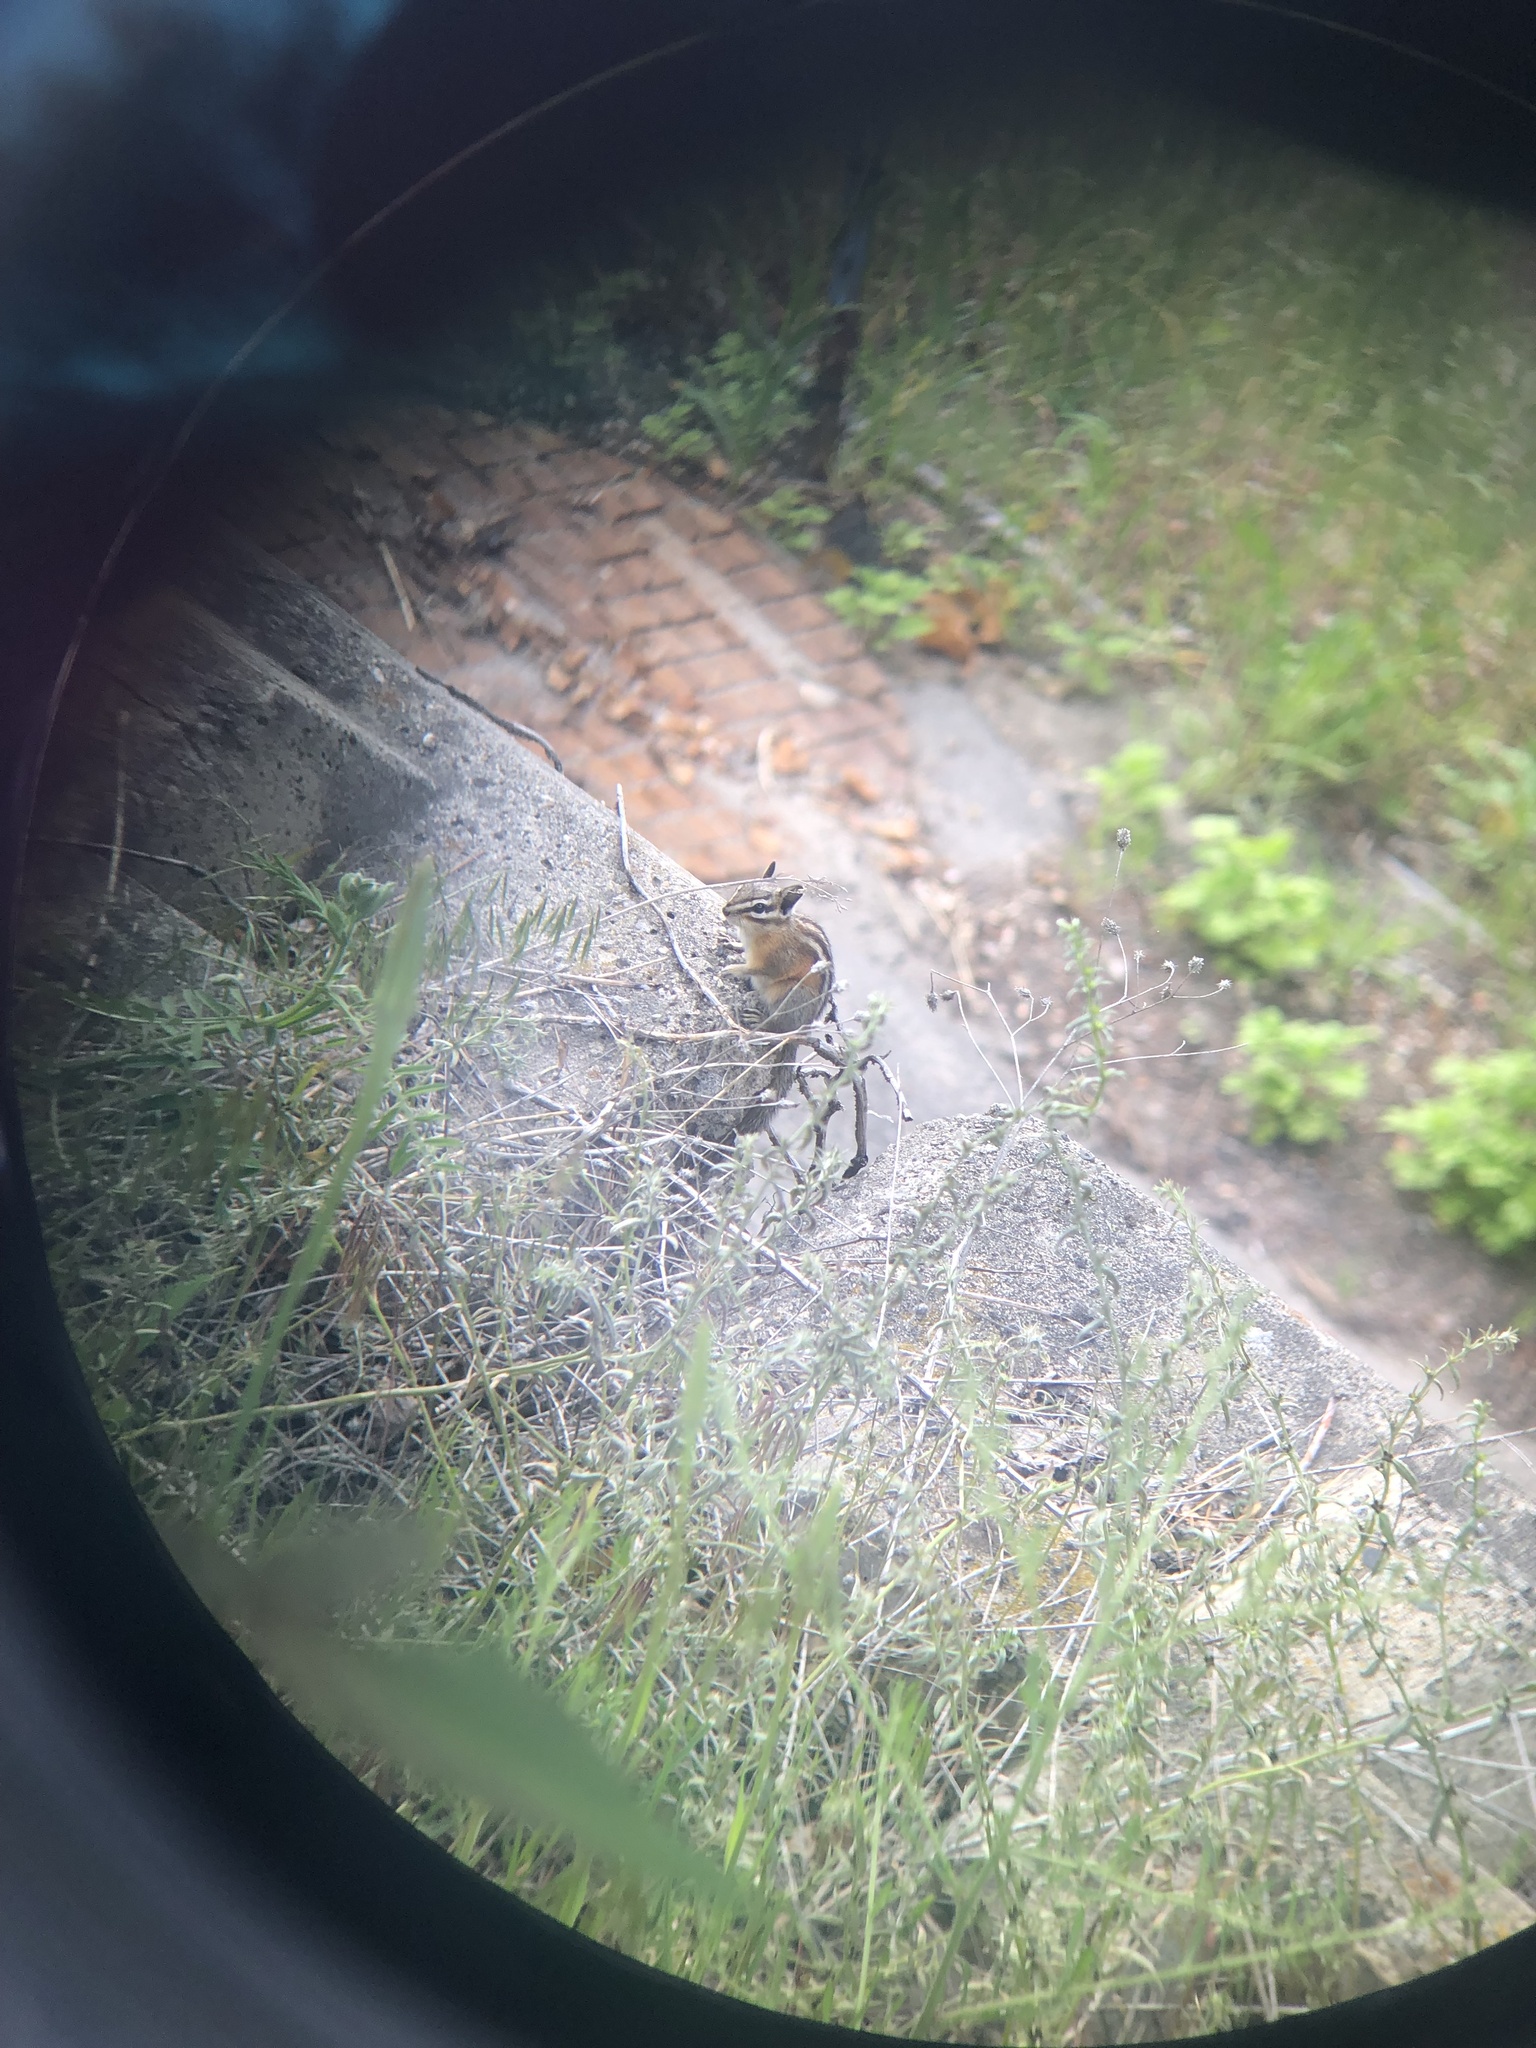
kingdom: Animalia
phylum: Chordata
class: Mammalia
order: Rodentia
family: Sciuridae
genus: Tamias
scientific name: Tamias amoenus
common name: Yellow-pine chipmunk
